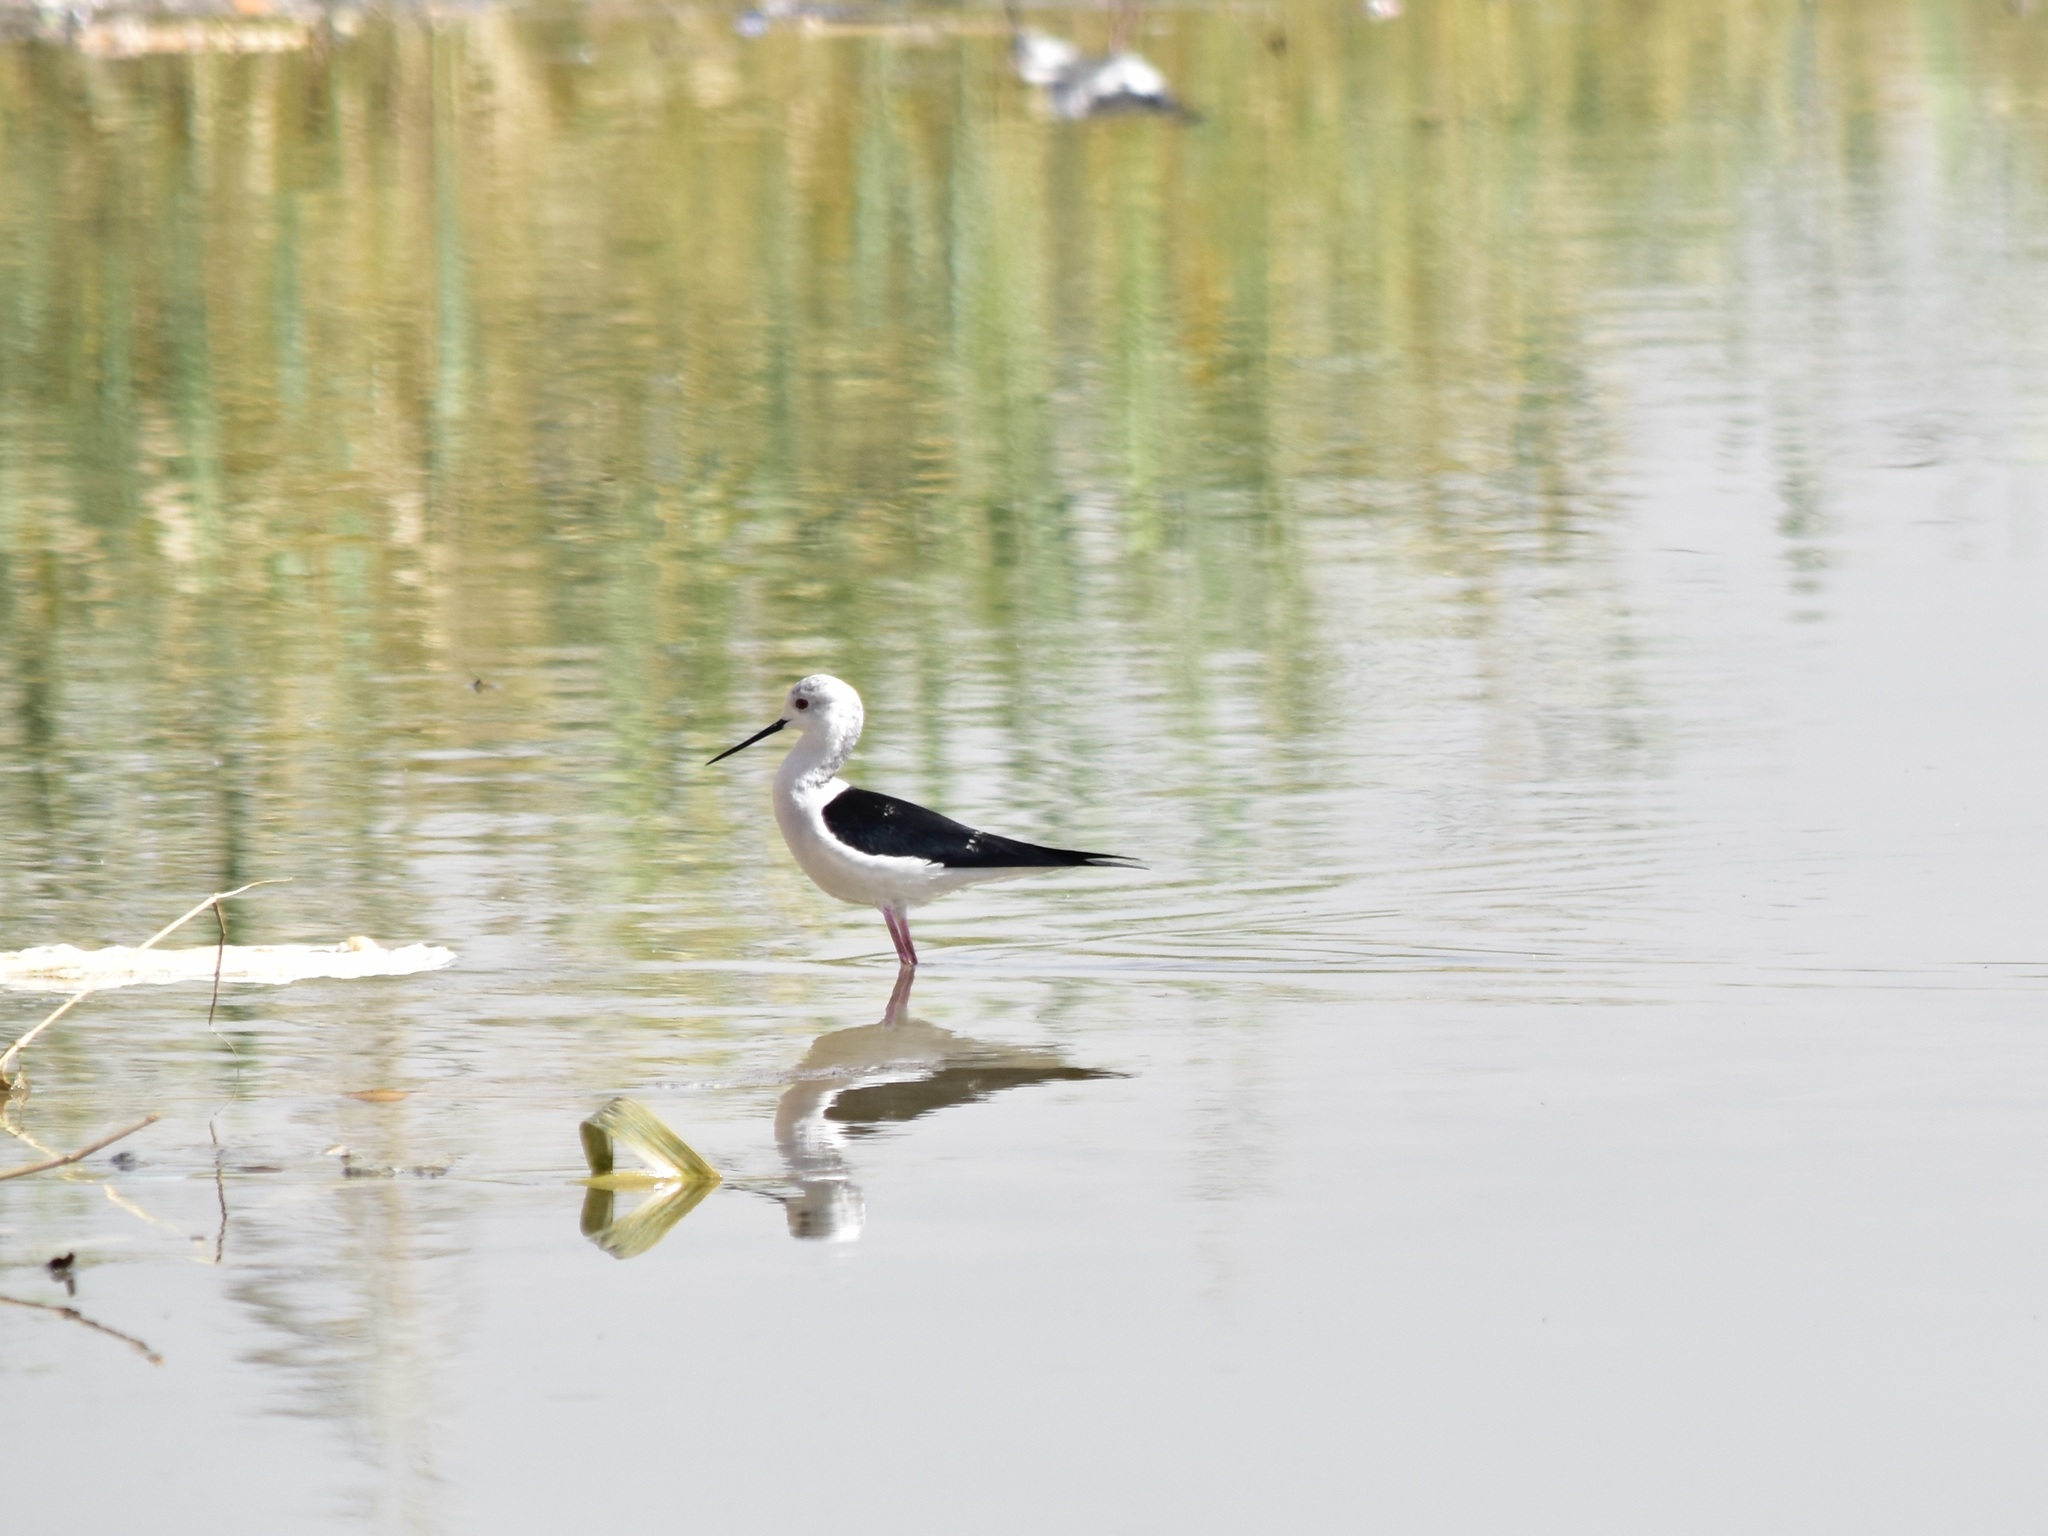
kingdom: Animalia
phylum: Chordata
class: Aves
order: Charadriiformes
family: Recurvirostridae
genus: Himantopus
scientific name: Himantopus himantopus
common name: Black-winged stilt
